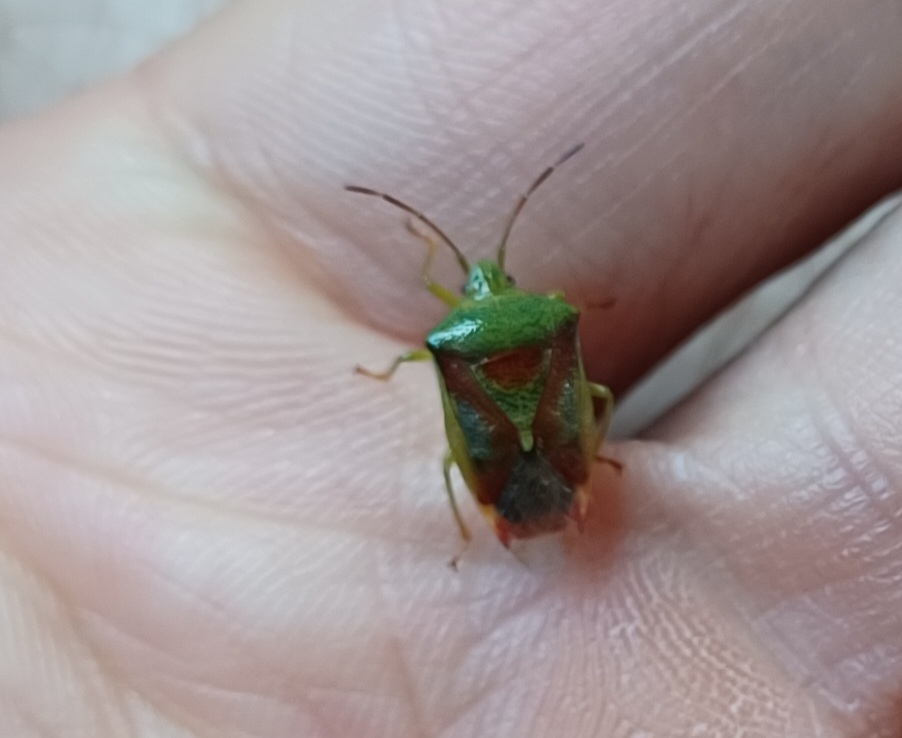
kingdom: Animalia
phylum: Arthropoda
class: Insecta
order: Hemiptera
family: Acanthosomatidae
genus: Elasmostethus
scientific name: Elasmostethus interstinctus
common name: Birch shieldbug
